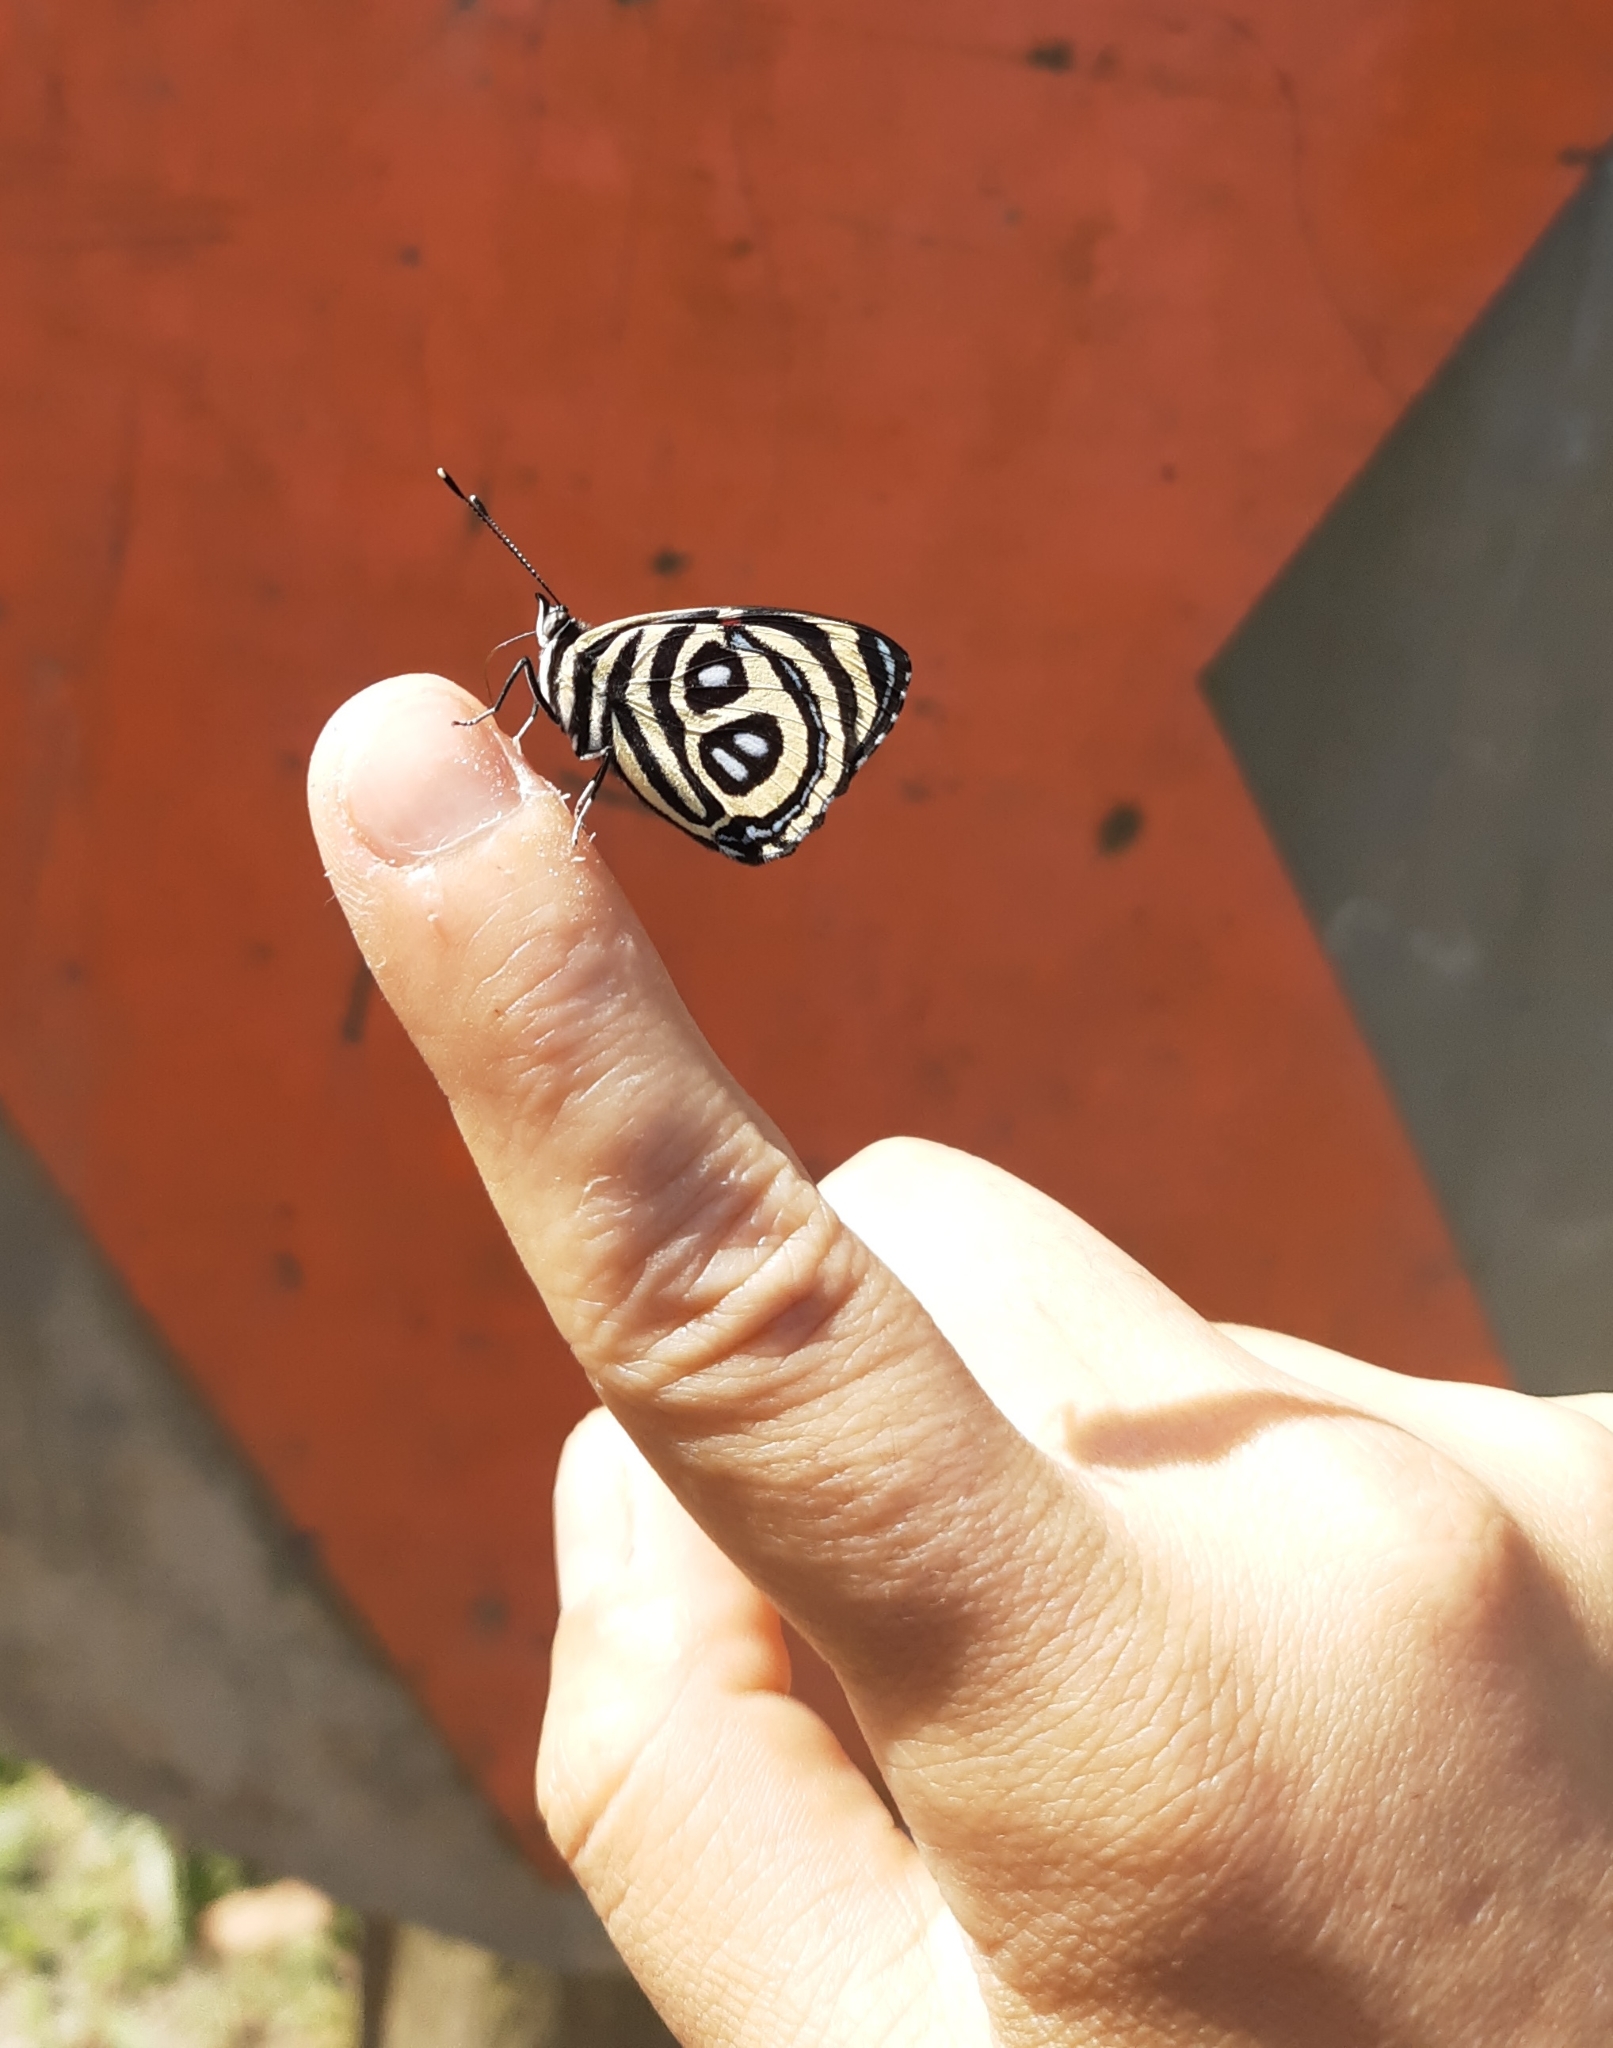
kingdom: Animalia
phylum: Arthropoda
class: Insecta
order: Lepidoptera
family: Nymphalidae
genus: Catagramma
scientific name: Catagramma pyracmon
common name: Google-eyed eighty-eight
